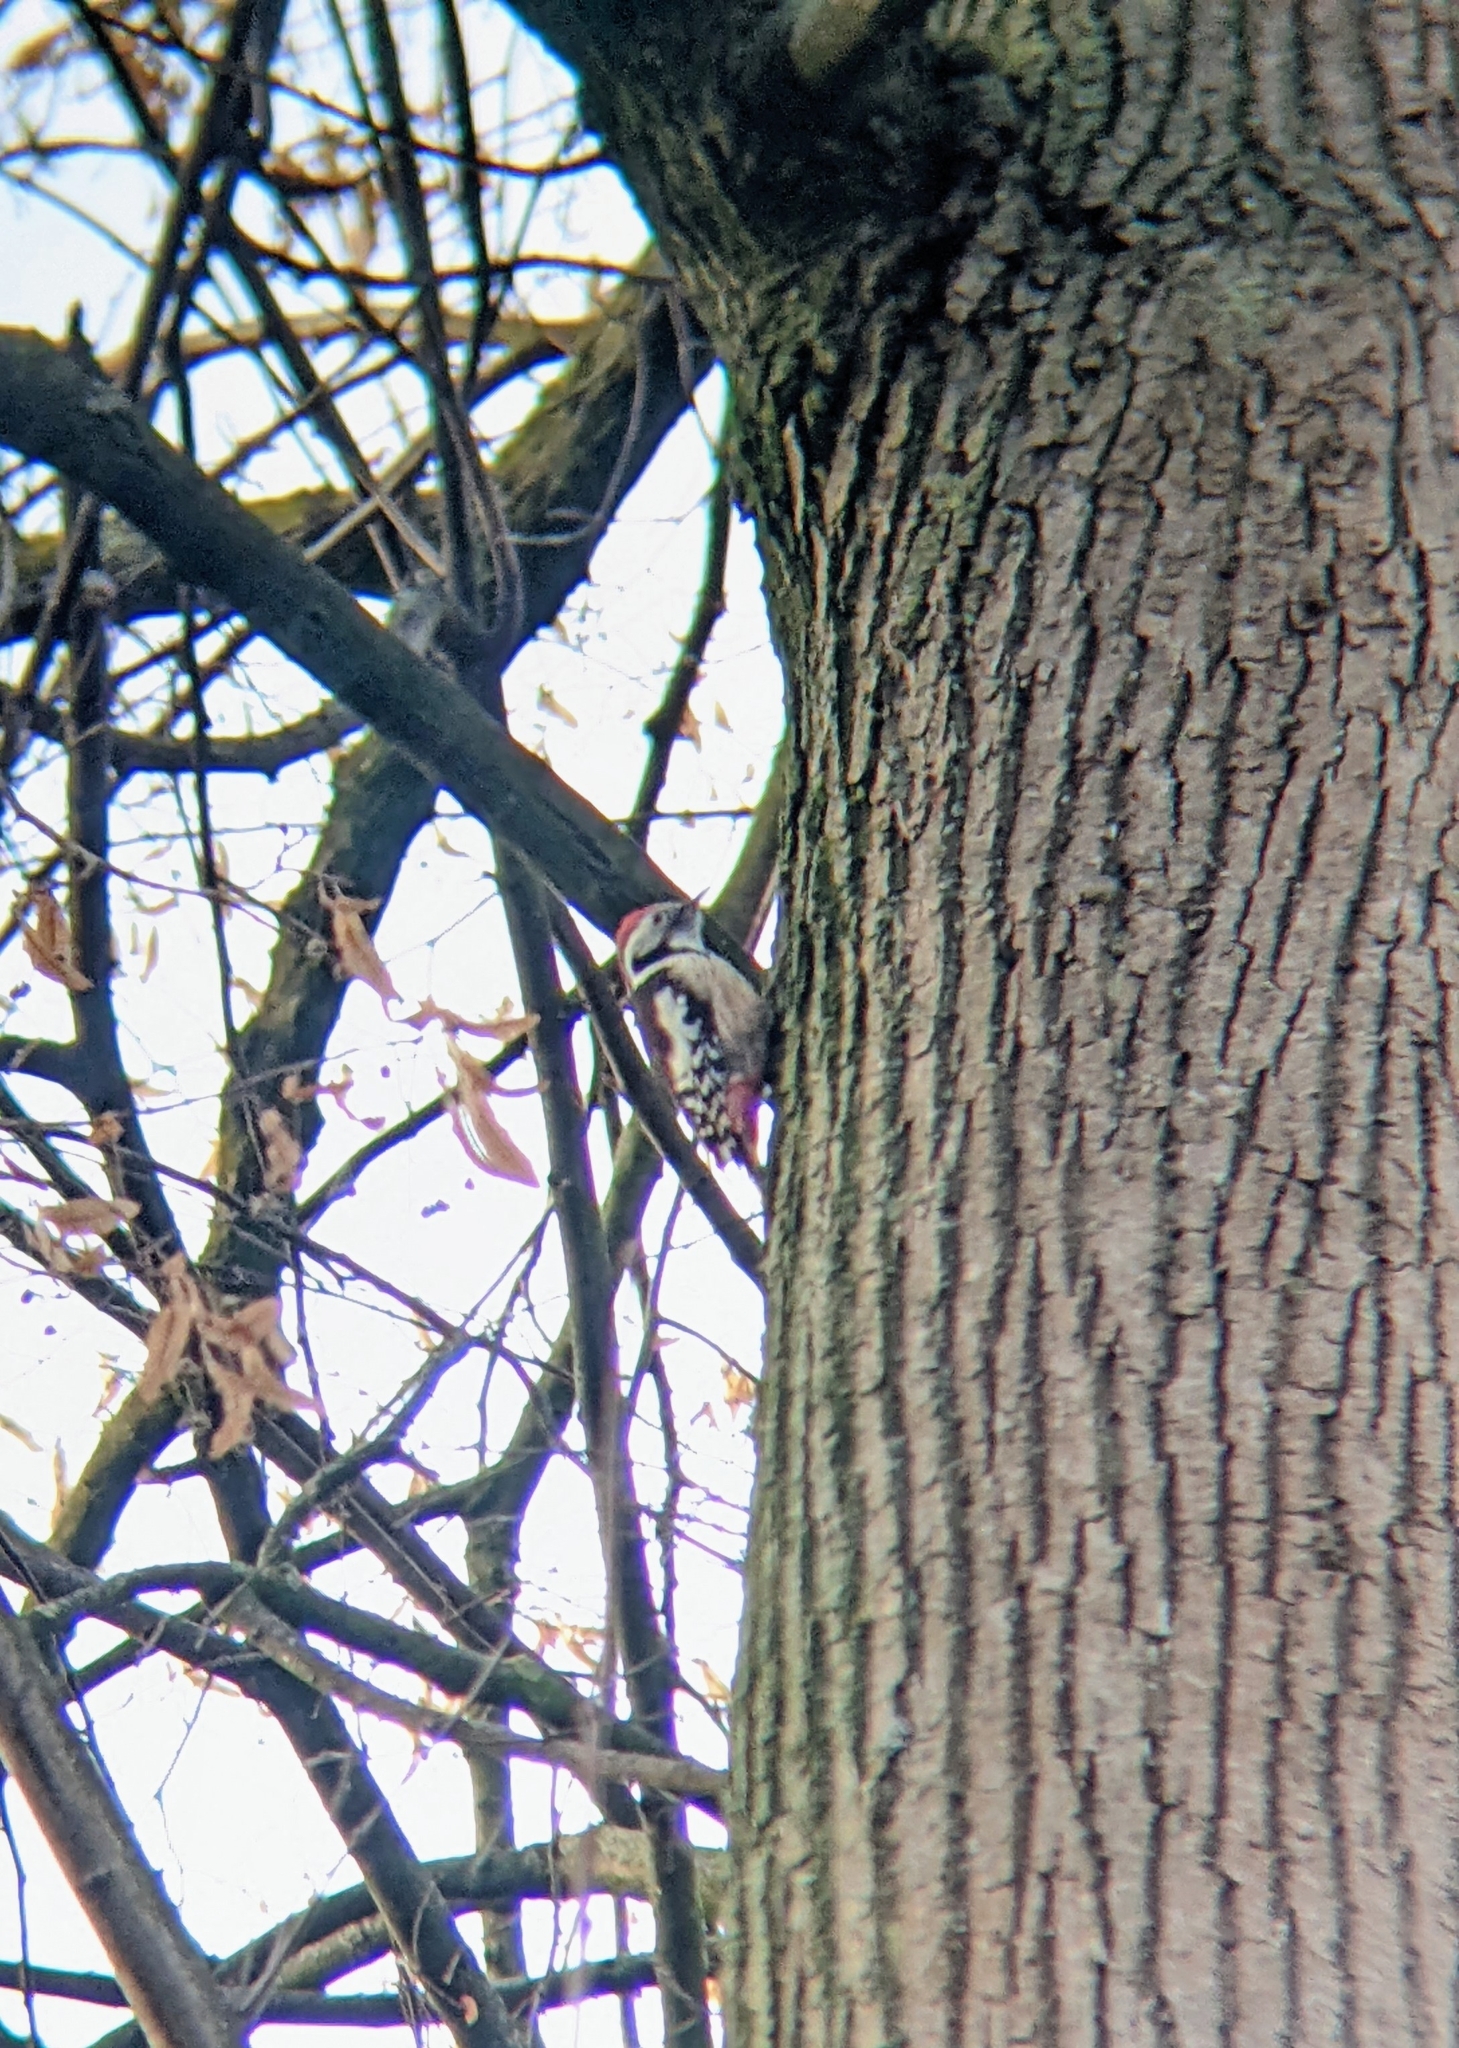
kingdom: Animalia
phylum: Chordata
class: Aves
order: Piciformes
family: Picidae
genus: Dendrocoptes
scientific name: Dendrocoptes medius
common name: Middle spotted woodpecker
